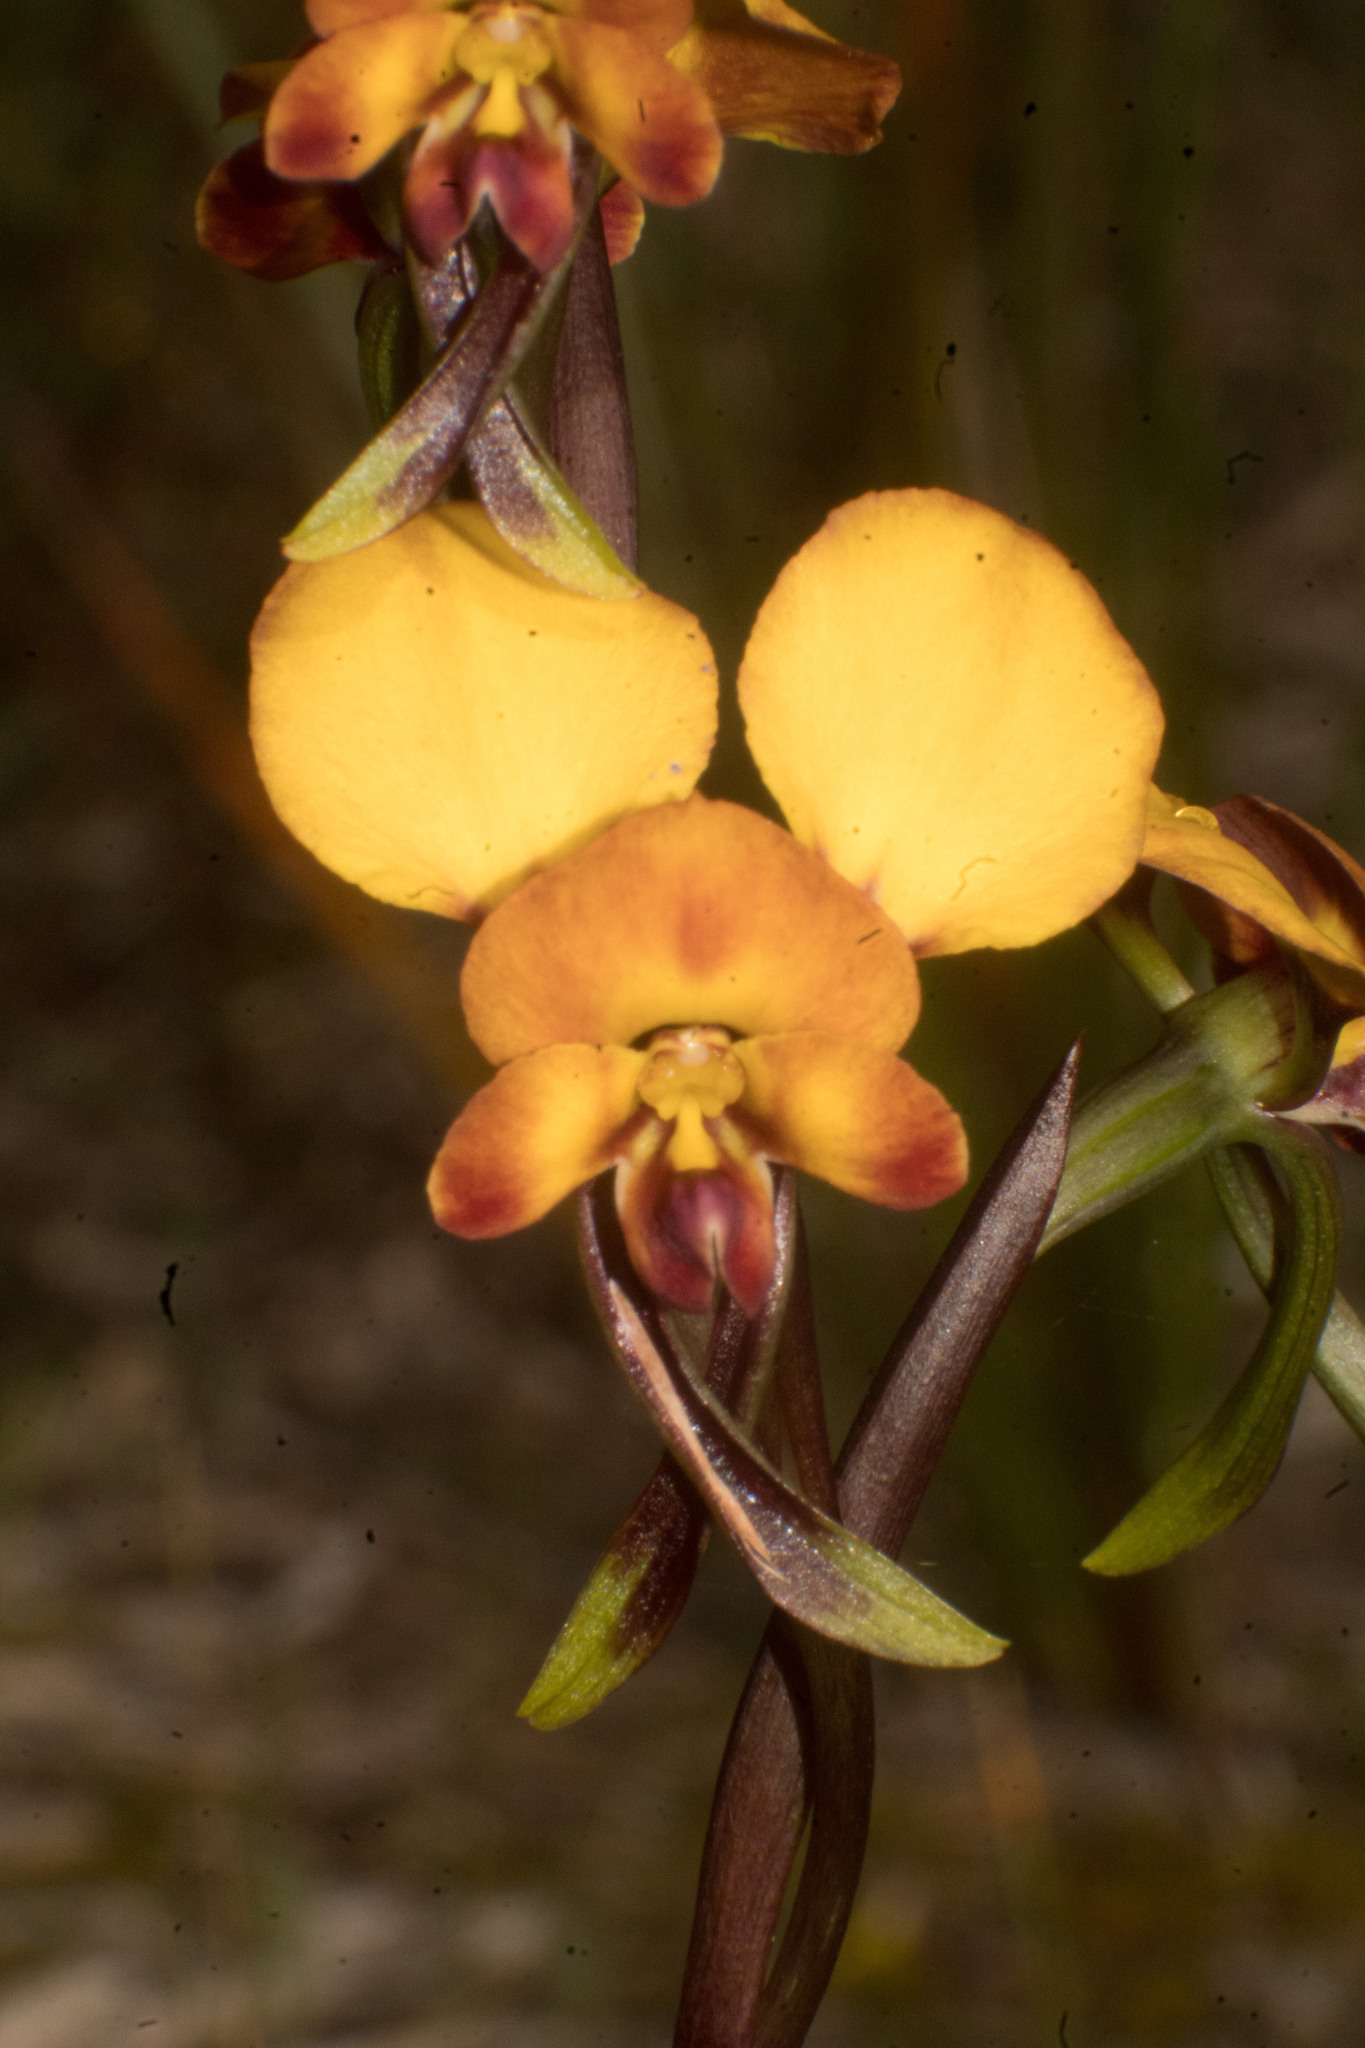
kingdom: Plantae
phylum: Tracheophyta
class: Liliopsida
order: Asparagales
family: Orchidaceae
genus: Diuris
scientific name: Diuris littoralis
